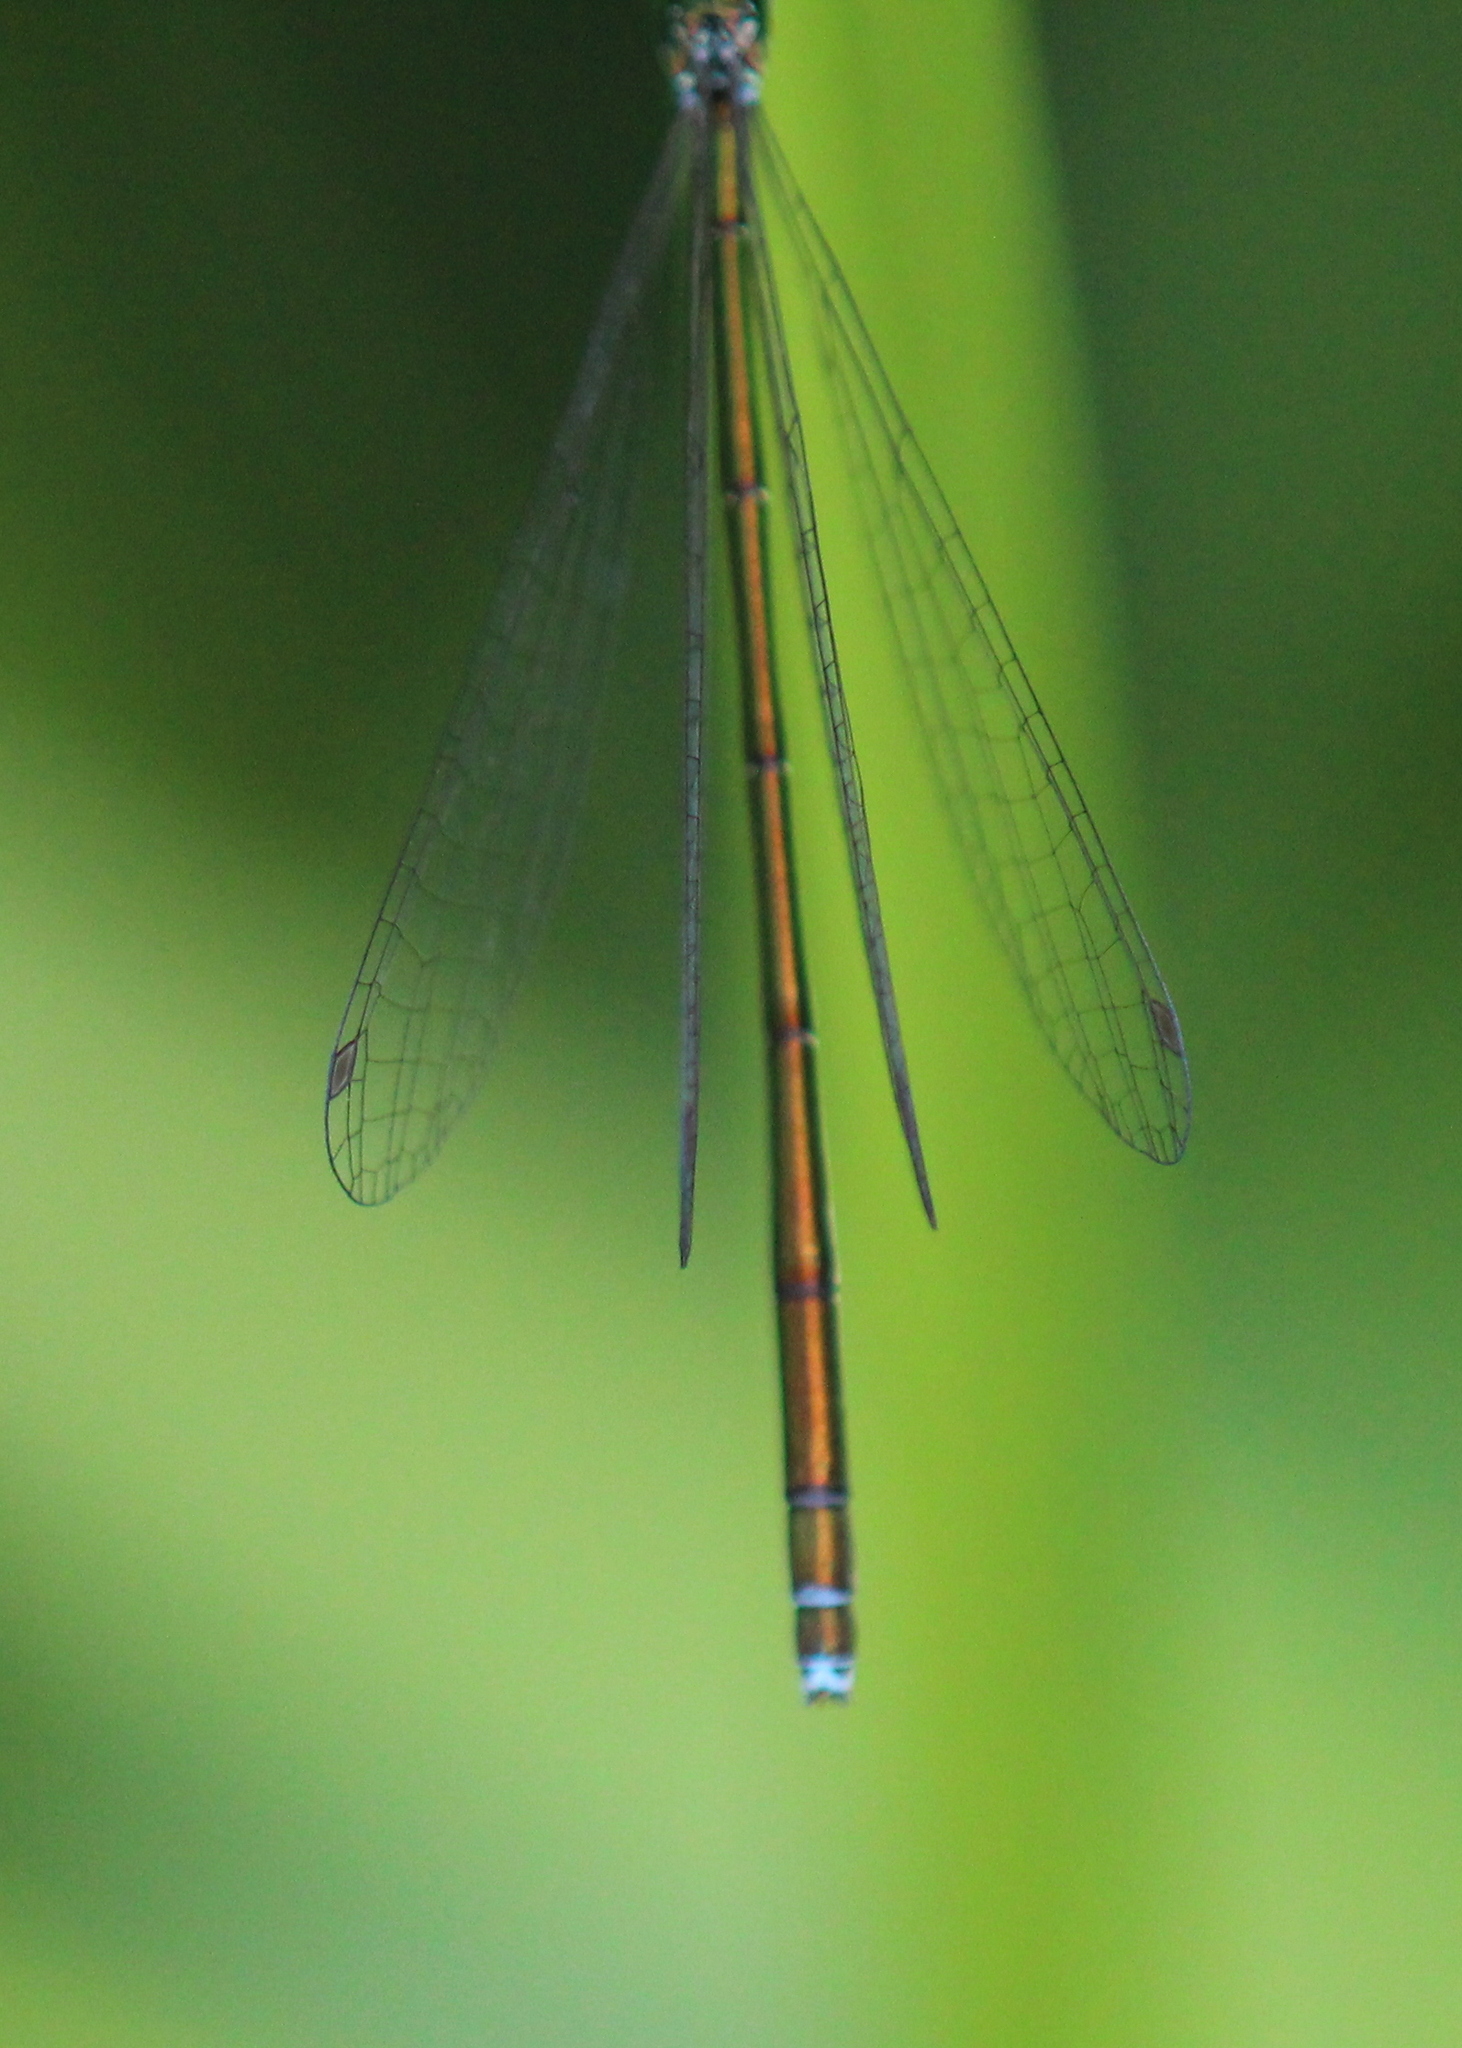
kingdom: Animalia
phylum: Arthropoda
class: Insecta
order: Odonata
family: Coenagrionidae
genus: Nehalennia
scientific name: Nehalennia irene
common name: Sedge sprite
